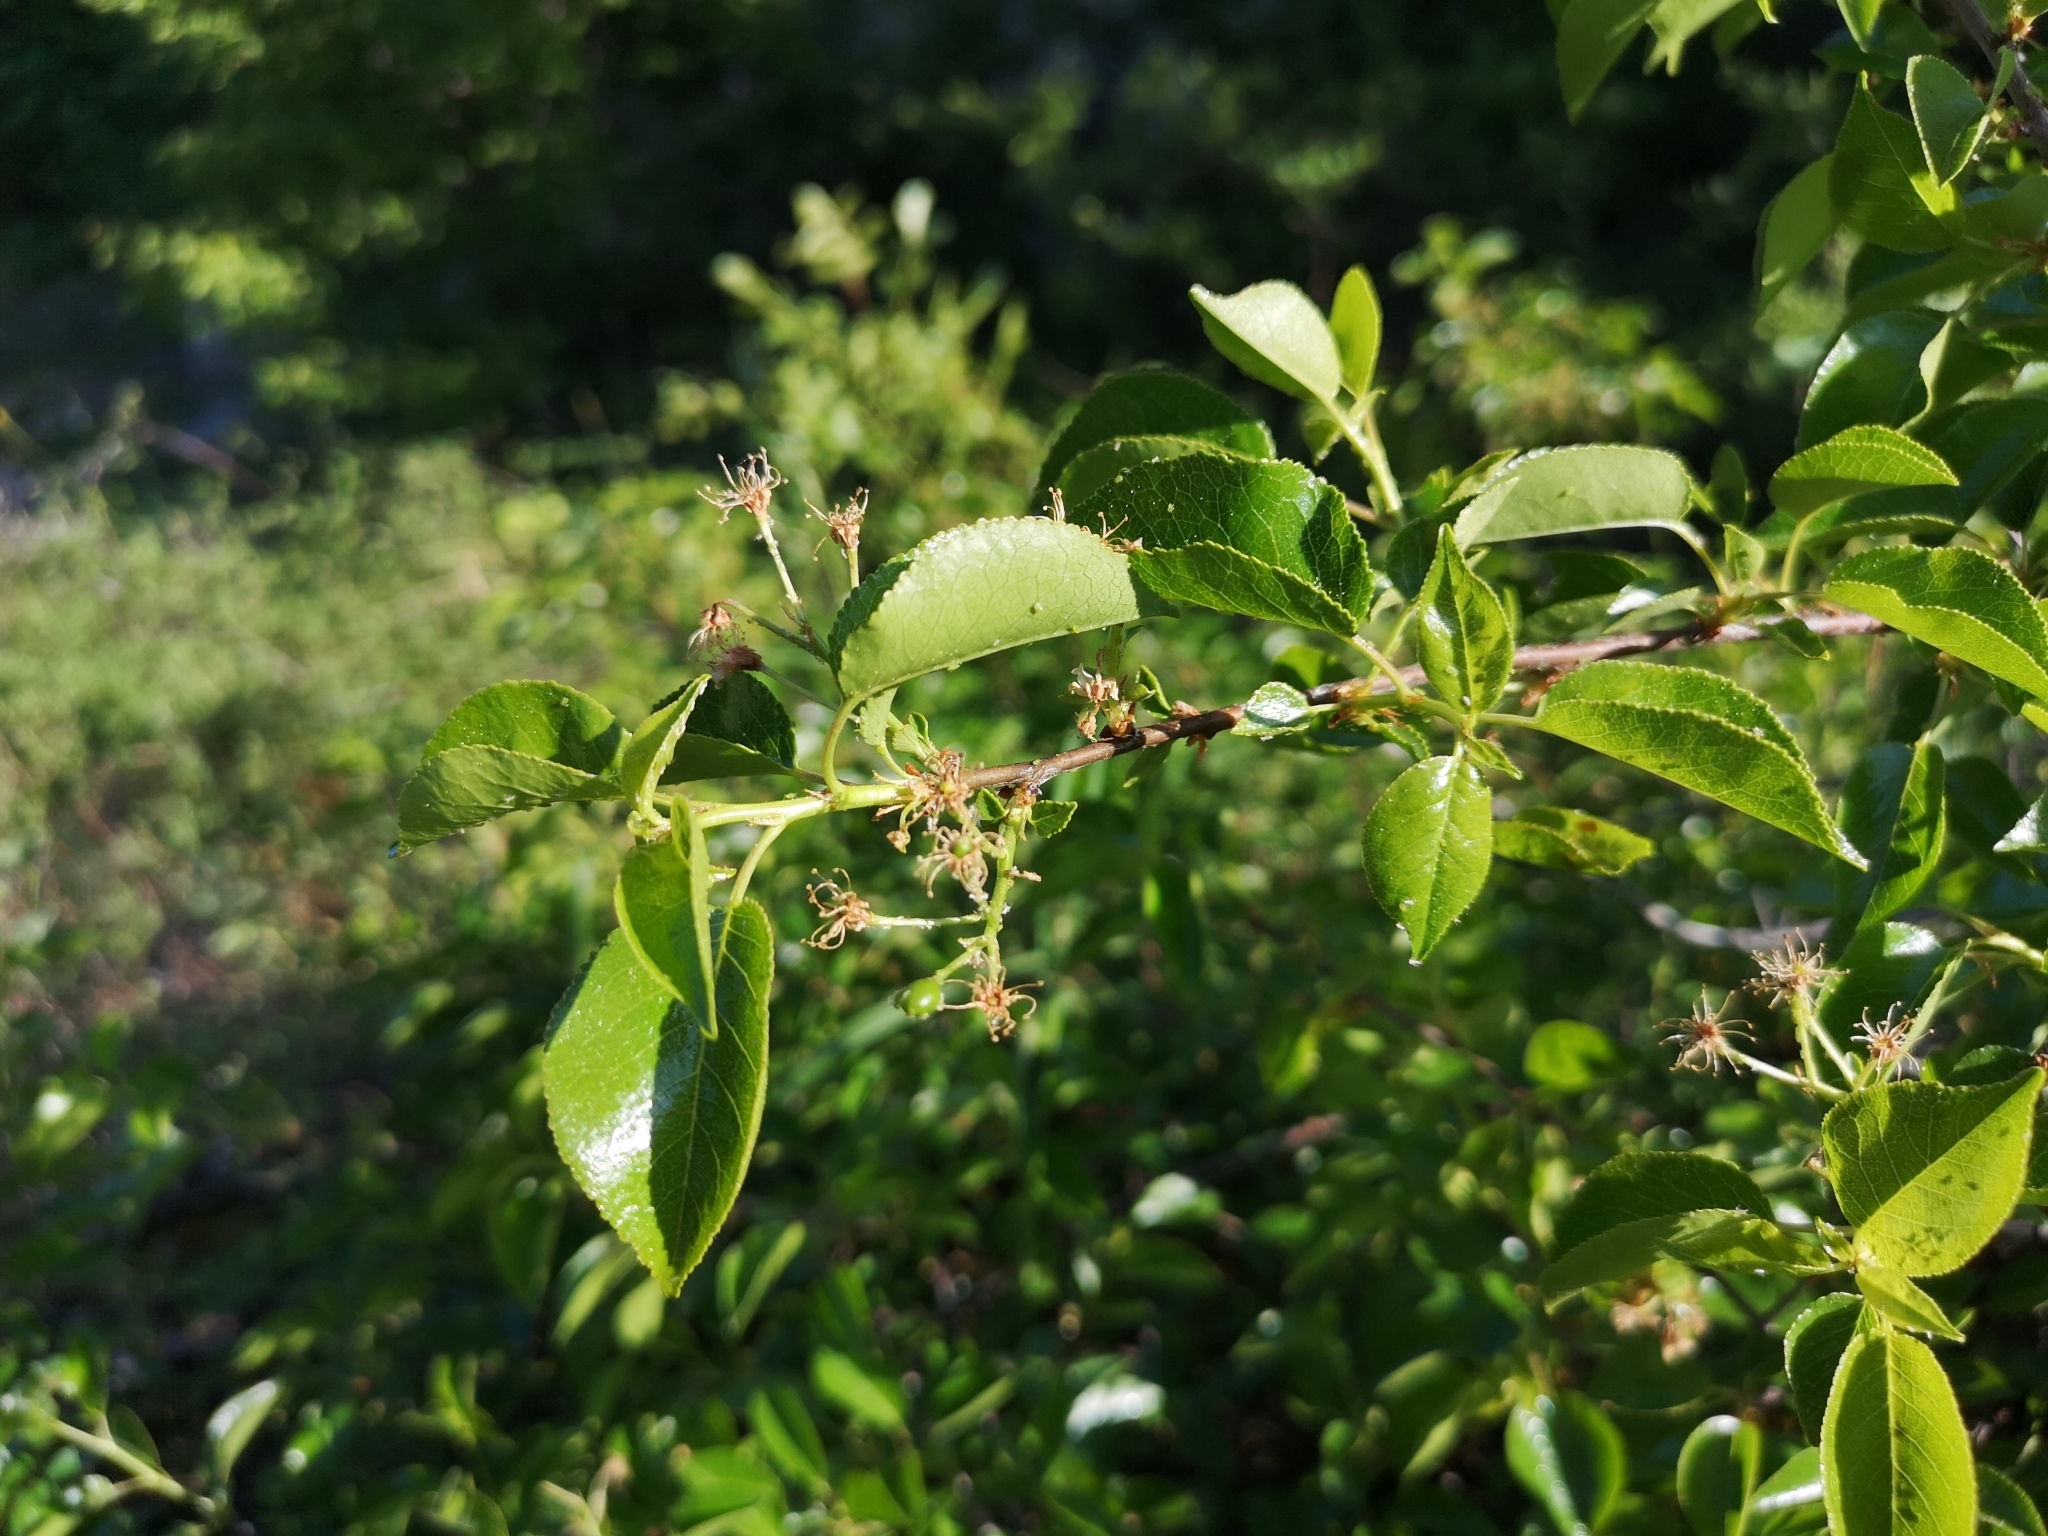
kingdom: Plantae
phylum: Tracheophyta
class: Magnoliopsida
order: Rosales
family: Rosaceae
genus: Prunus
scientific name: Prunus mahaleb
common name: Mahaleb cherry
